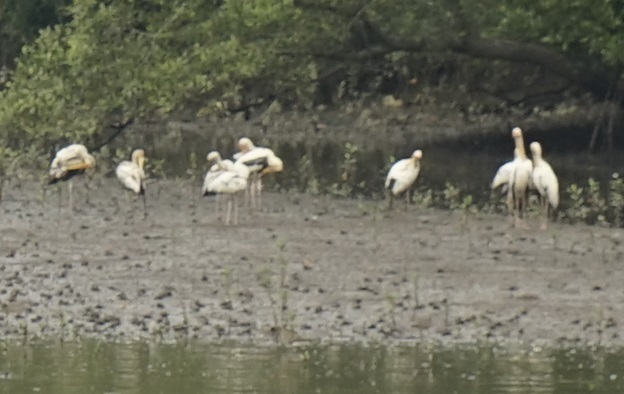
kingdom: Animalia
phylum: Chordata
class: Aves
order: Ciconiiformes
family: Ciconiidae
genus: Mycteria
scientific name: Mycteria
